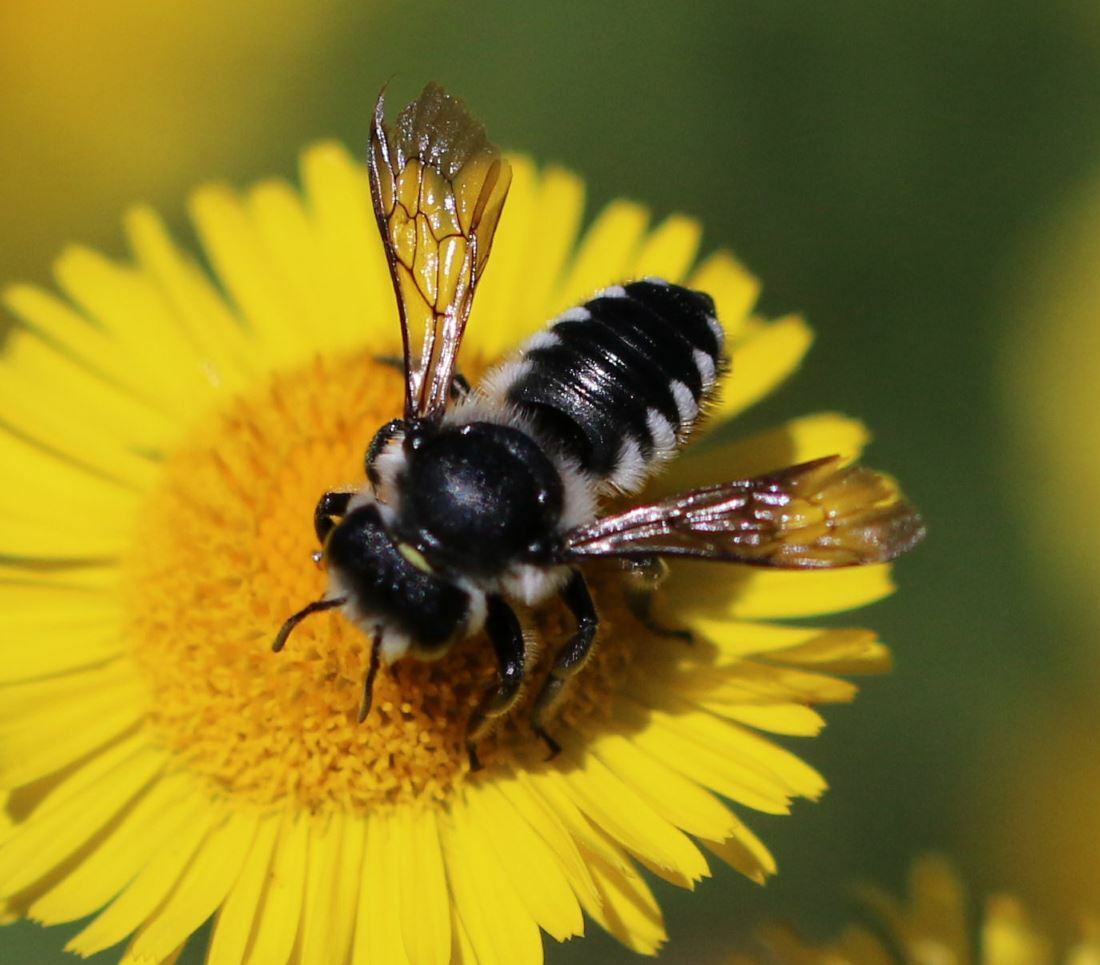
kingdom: Animalia
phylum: Arthropoda
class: Insecta
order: Hymenoptera
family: Megachilidae
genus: Megachile
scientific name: Megachile octosignata
